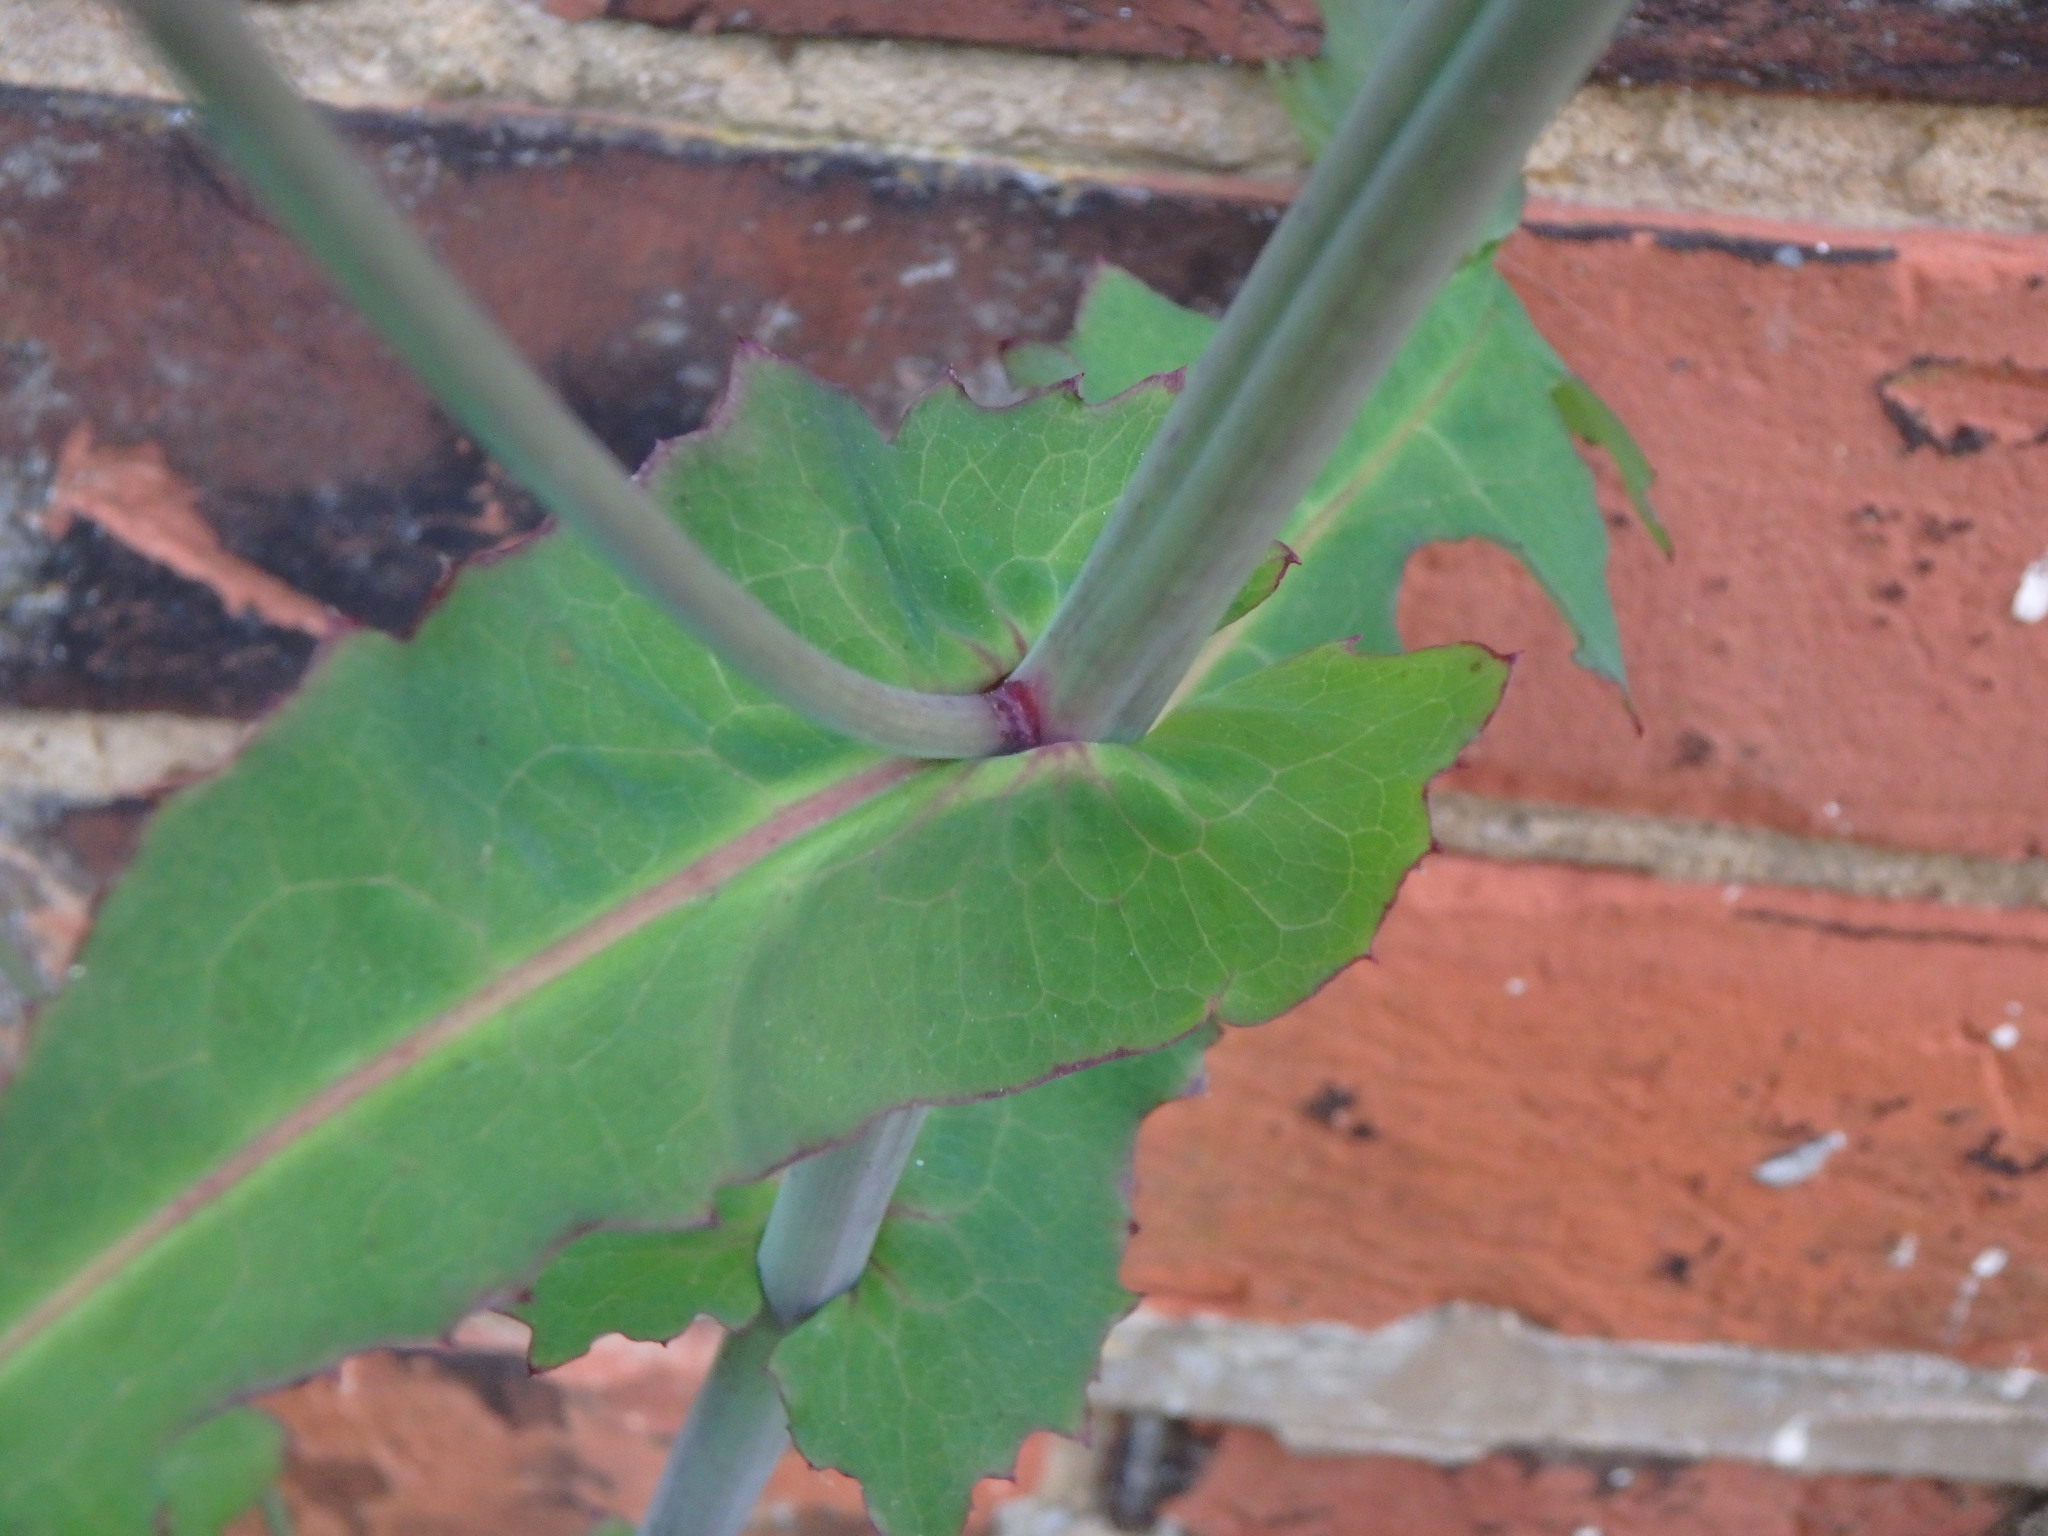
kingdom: Plantae
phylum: Tracheophyta
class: Magnoliopsida
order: Asterales
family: Asteraceae
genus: Mycelis
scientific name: Mycelis muralis
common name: Wall lettuce
